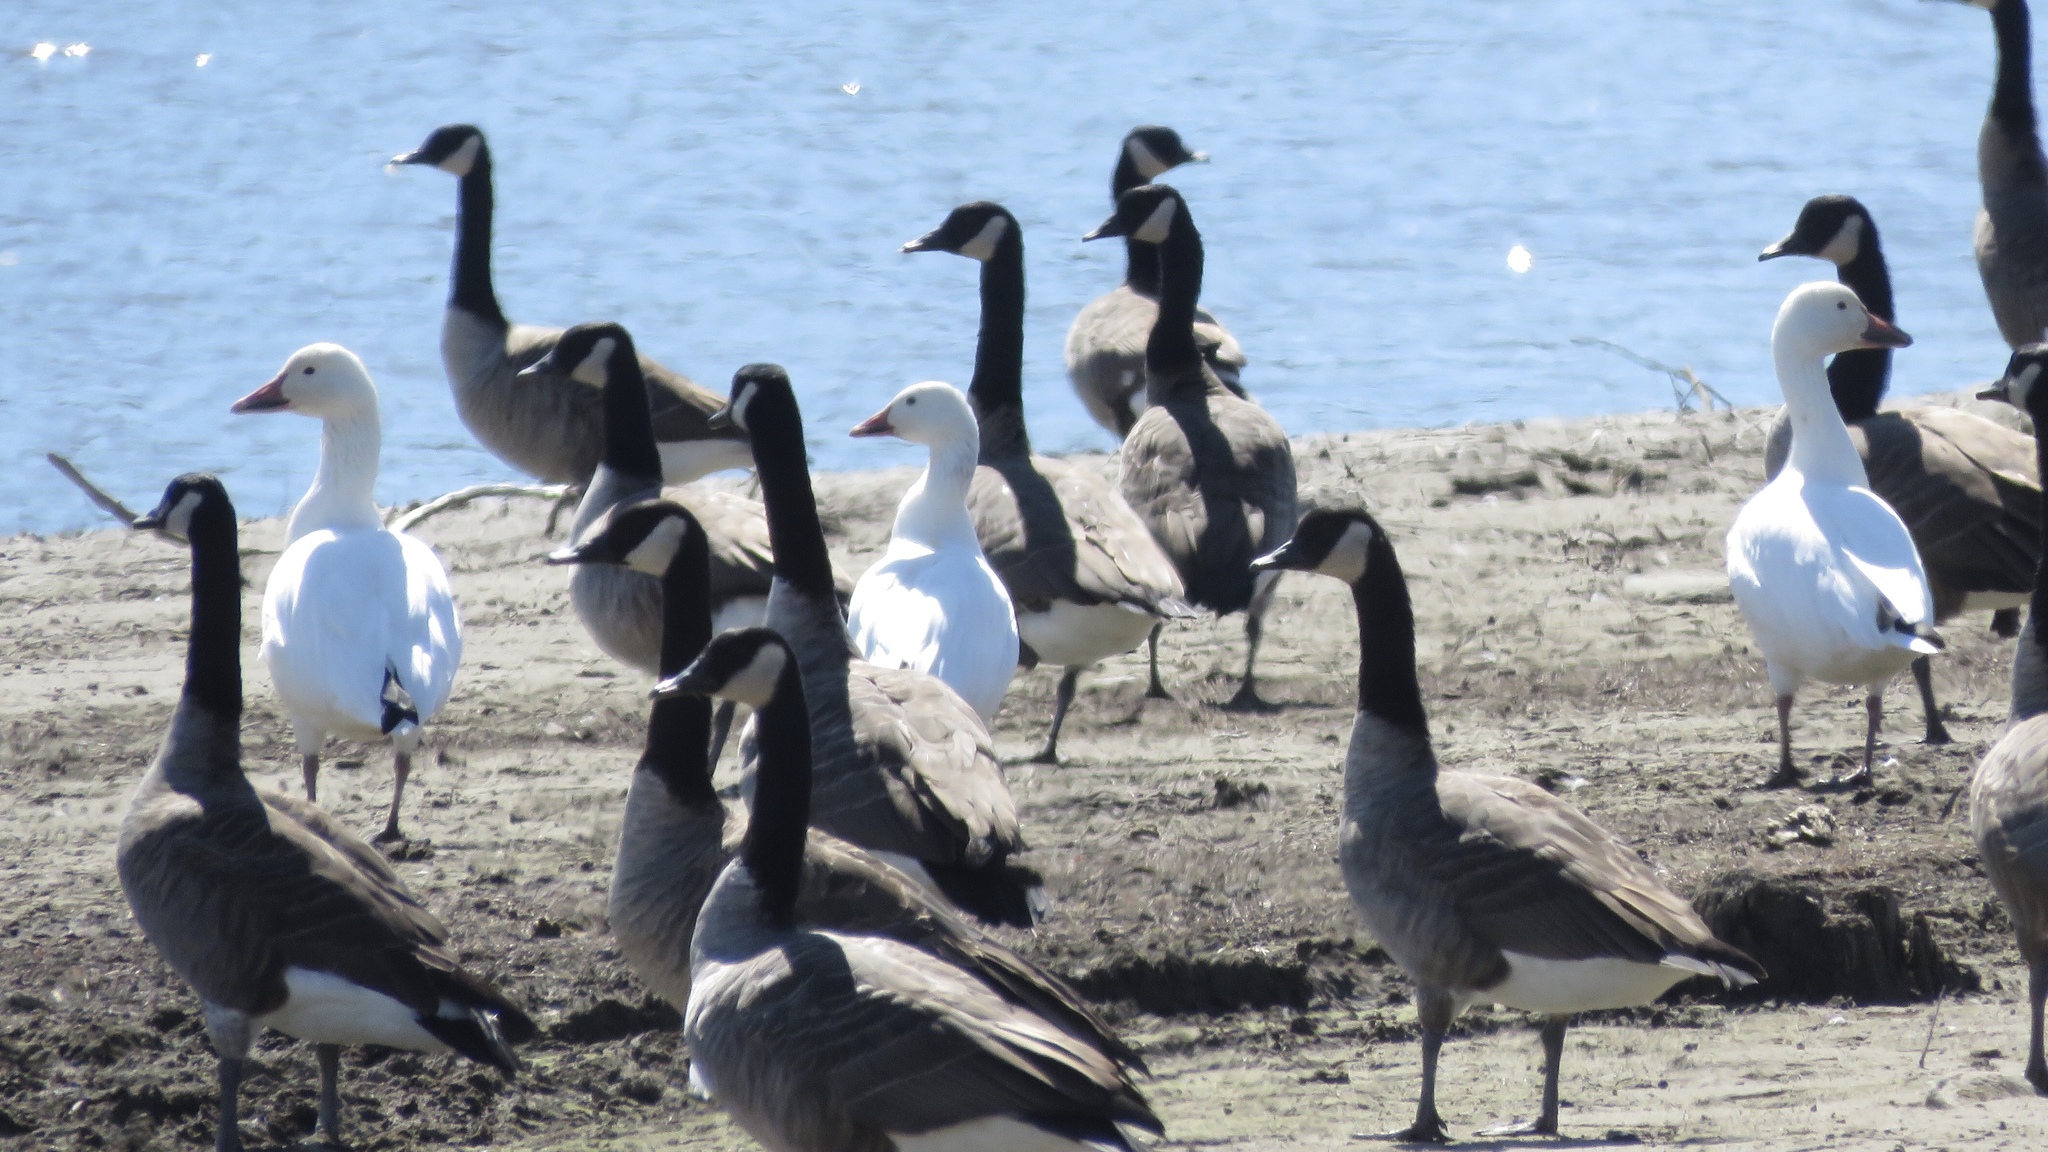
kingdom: Animalia
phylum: Chordata
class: Aves
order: Anseriformes
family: Anatidae
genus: Anser
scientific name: Anser caerulescens
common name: Snow goose
